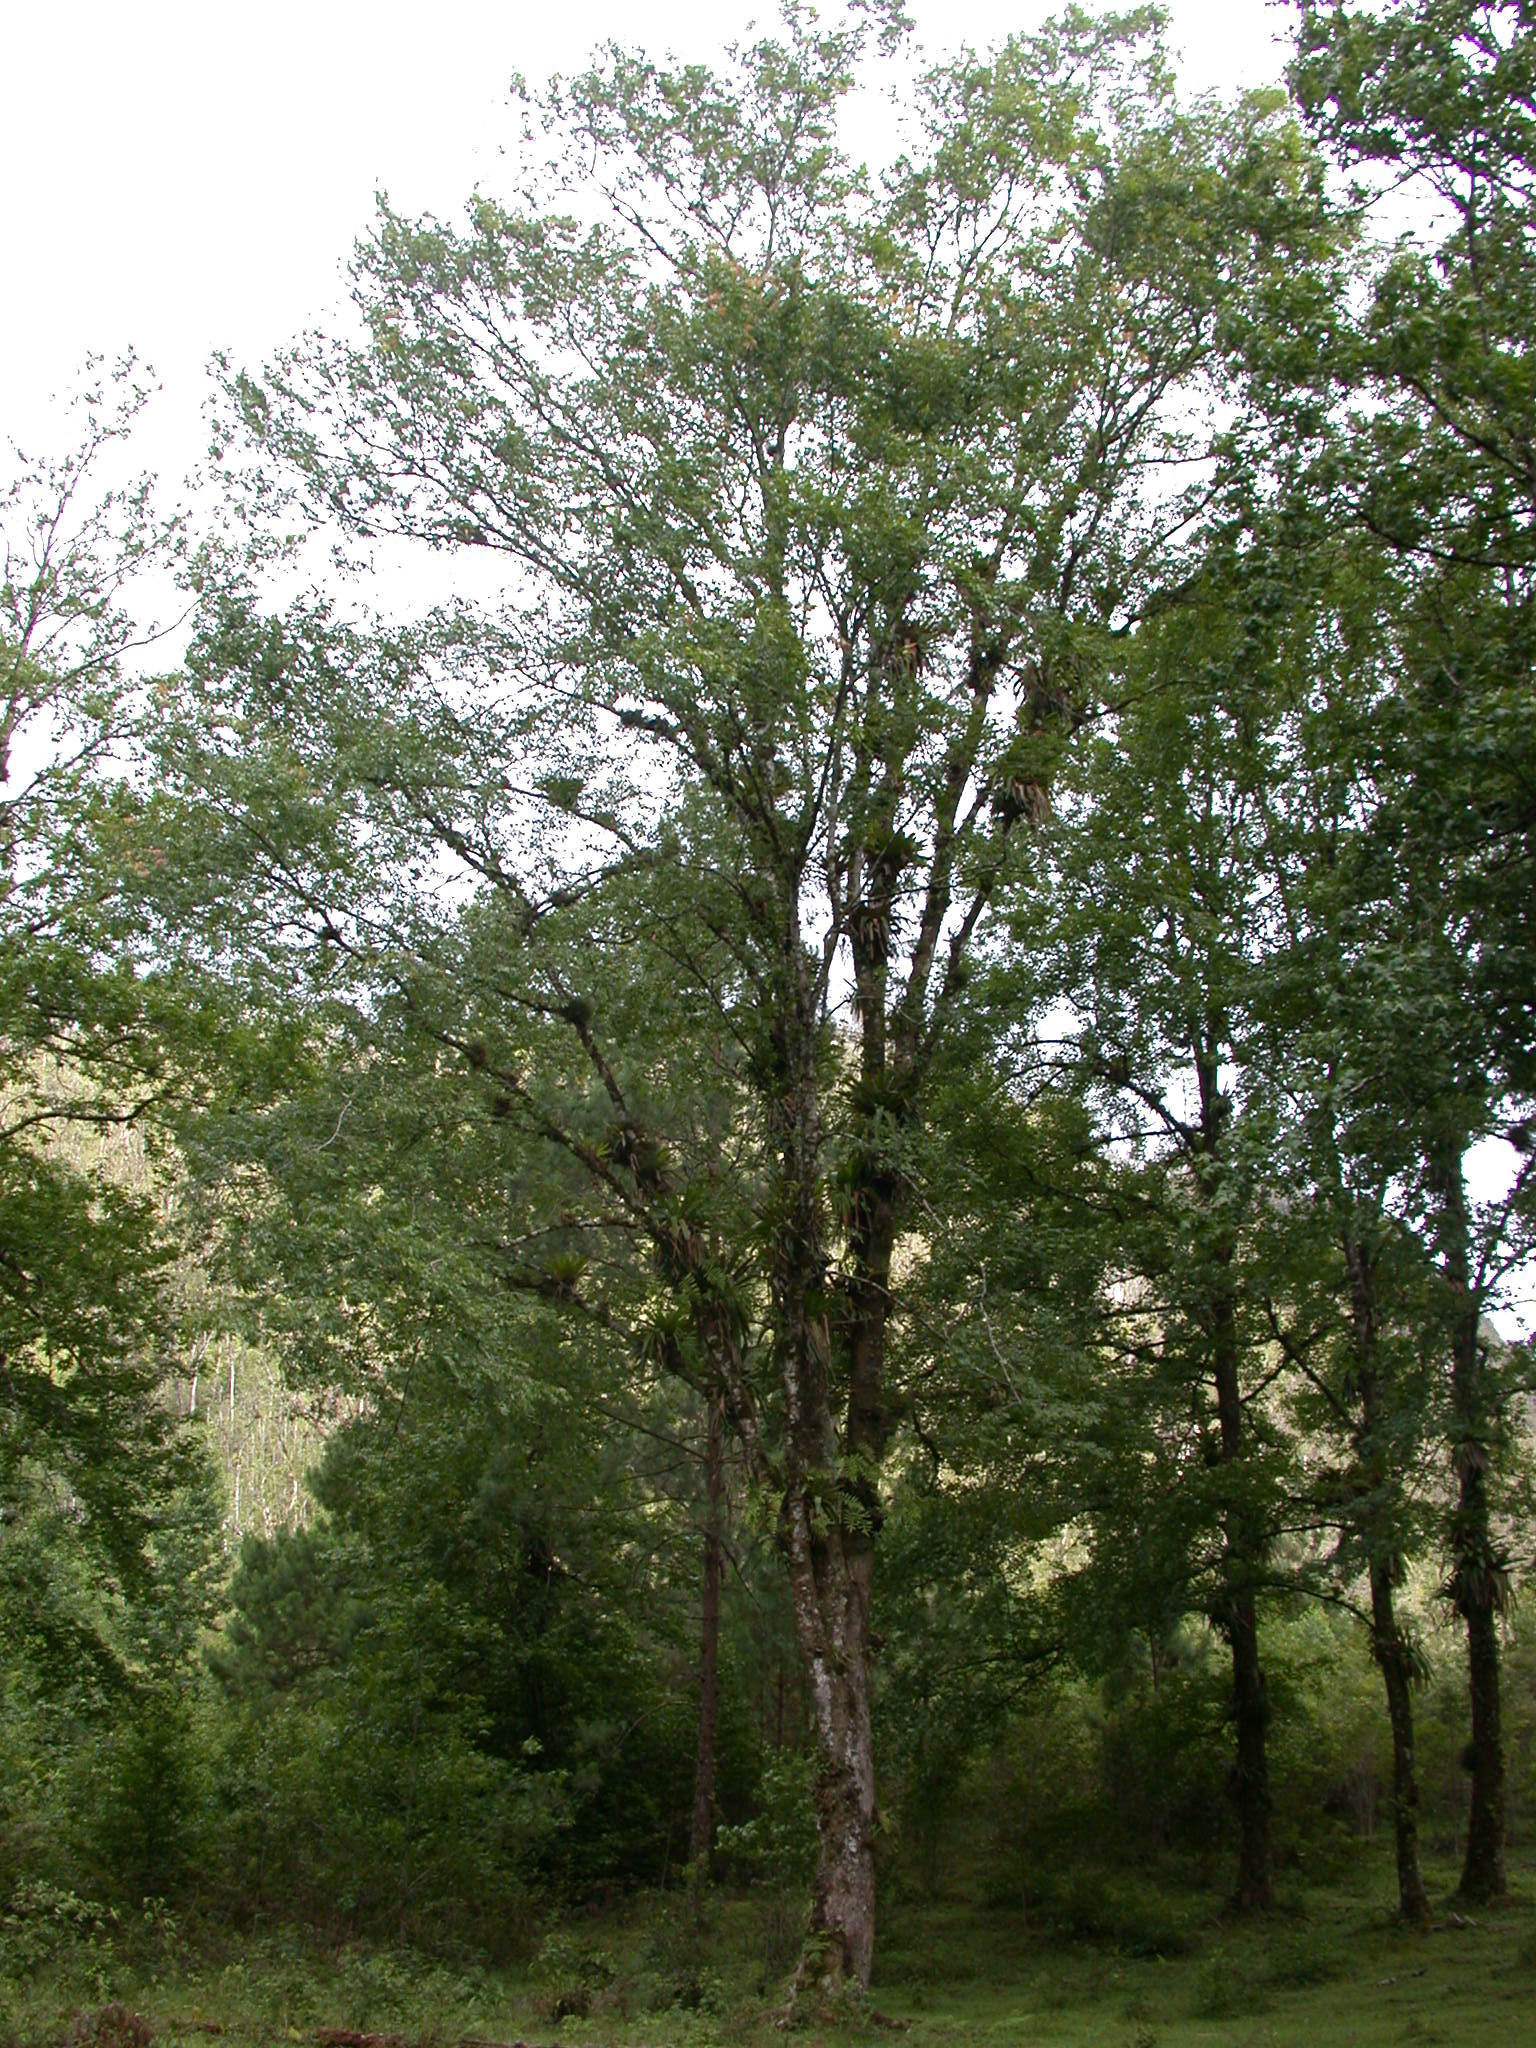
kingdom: Plantae
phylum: Tracheophyta
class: Magnoliopsida
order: Fagales
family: Betulaceae
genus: Carpinus
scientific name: Carpinus tropicalis
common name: Hornbeam
